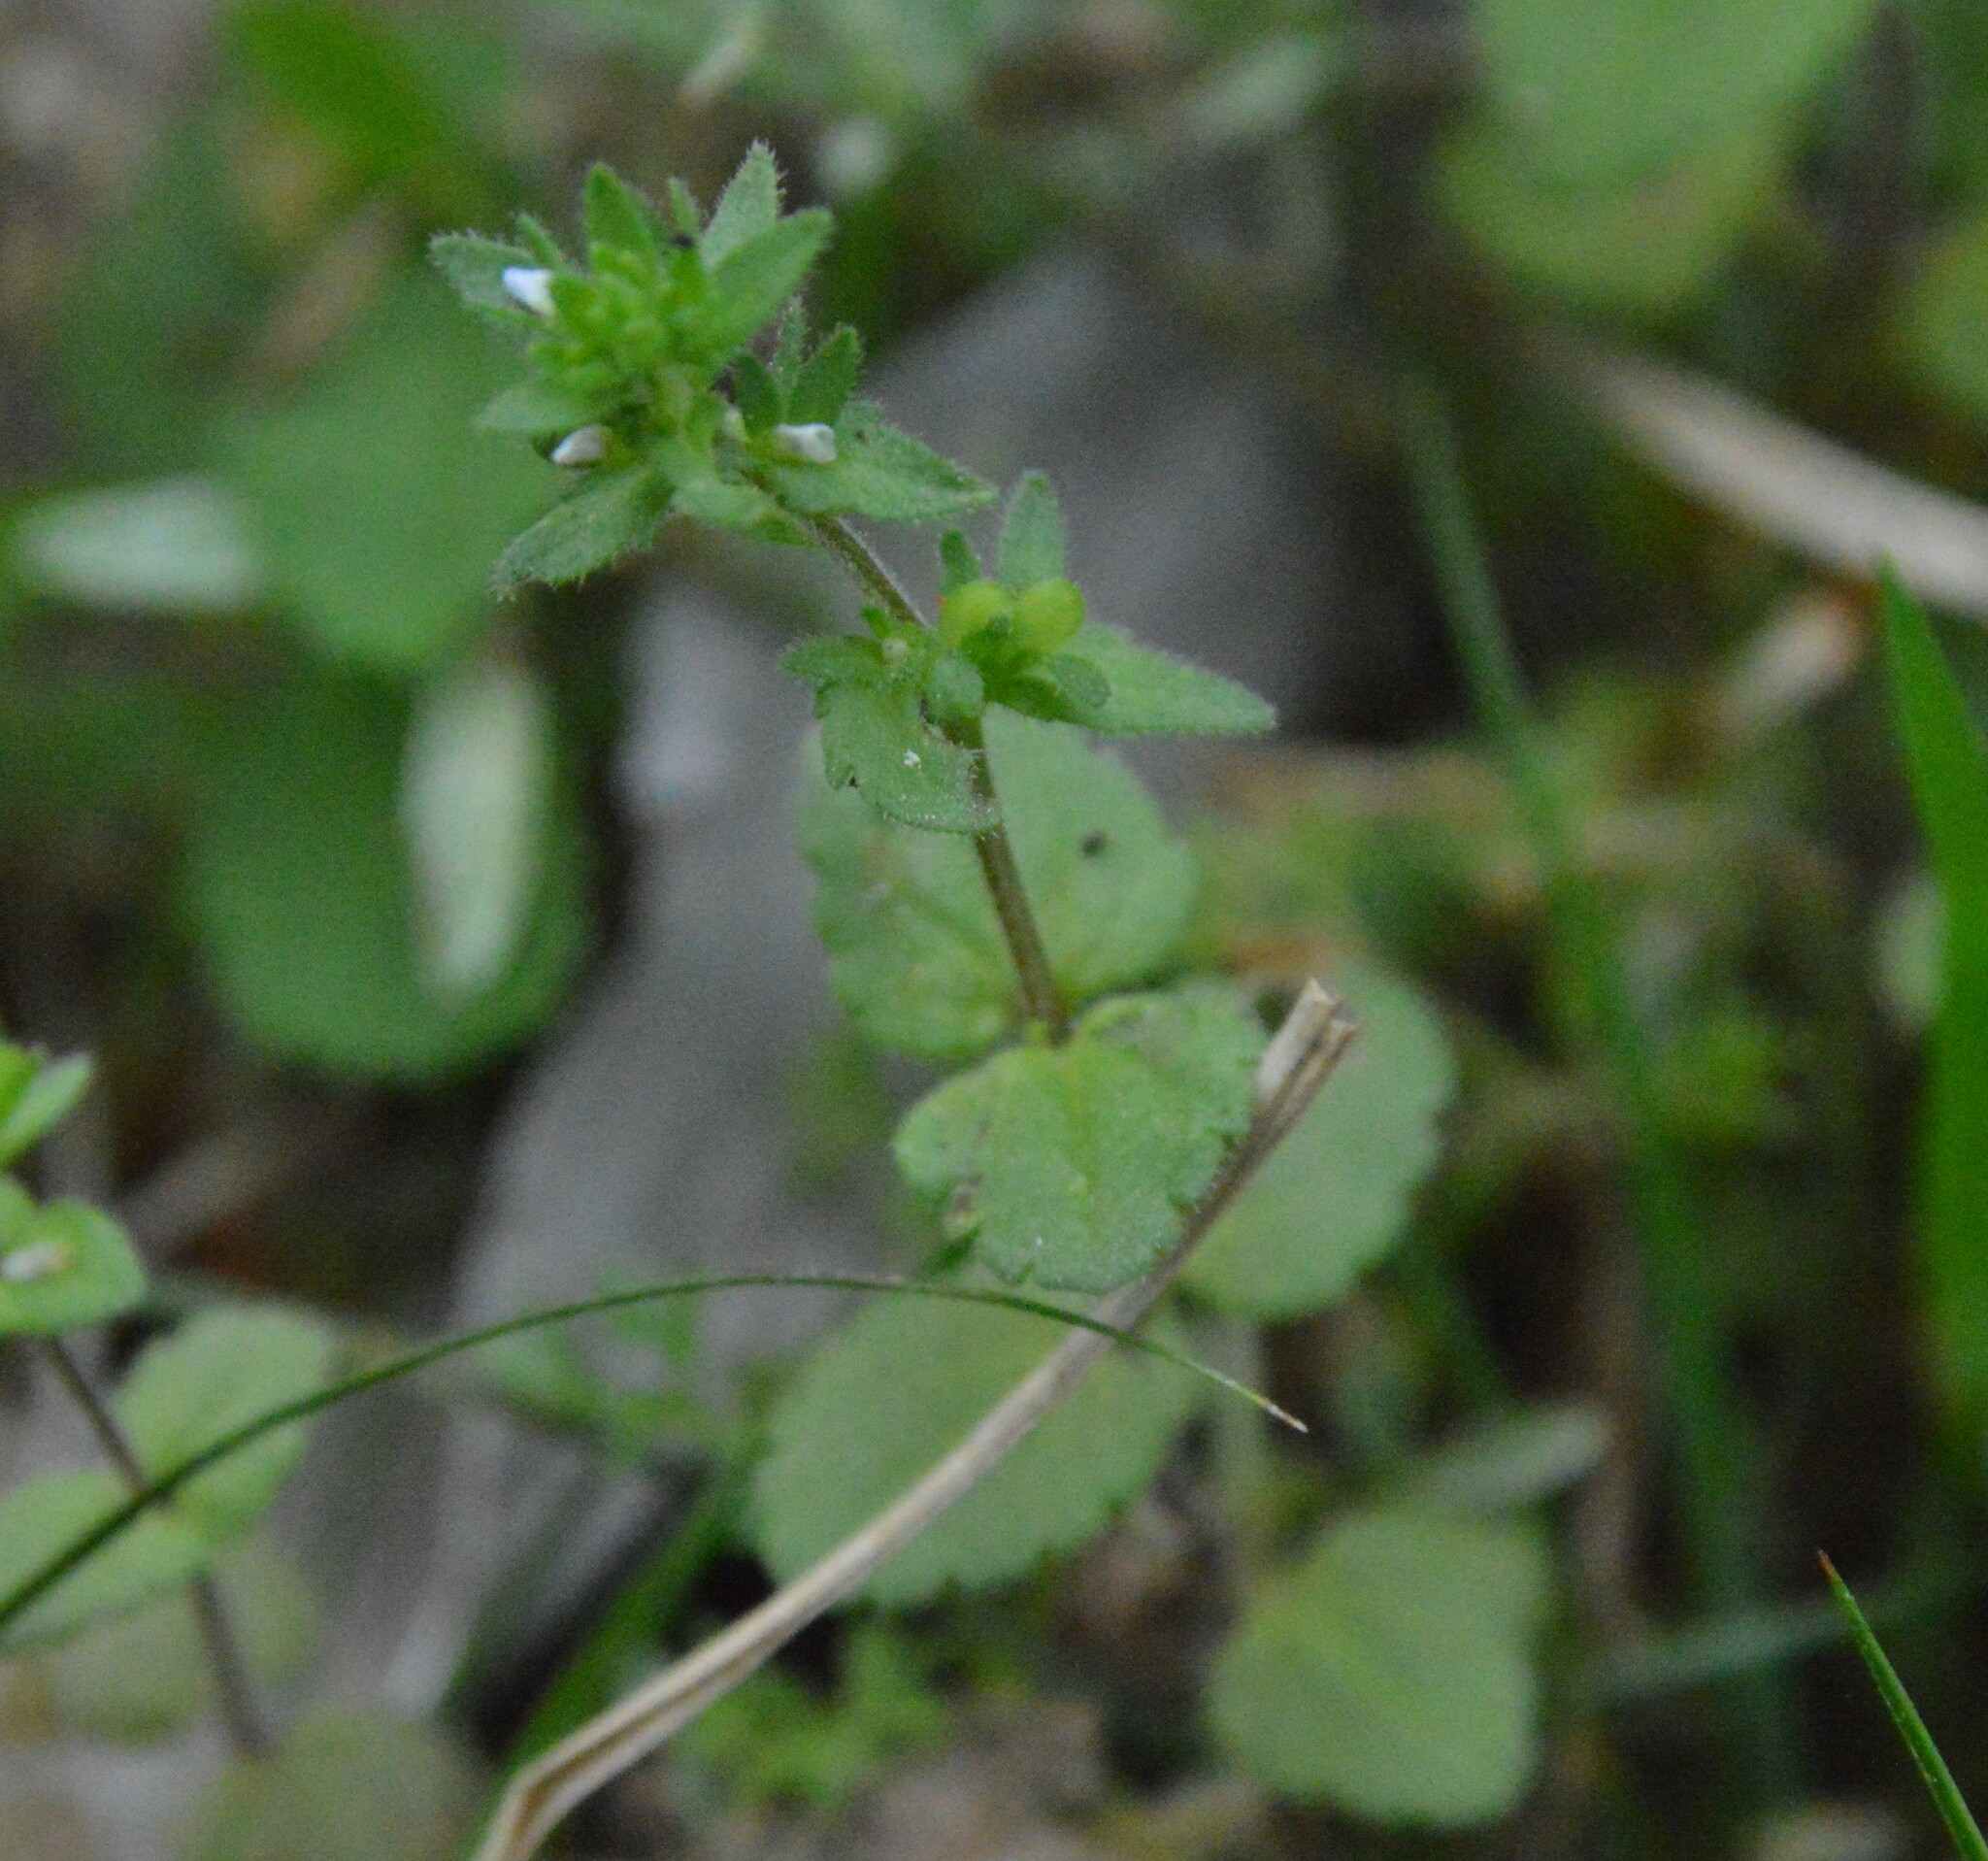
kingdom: Plantae
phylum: Tracheophyta
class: Magnoliopsida
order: Lamiales
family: Plantaginaceae
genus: Veronica
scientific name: Veronica arvensis
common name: Corn speedwell
